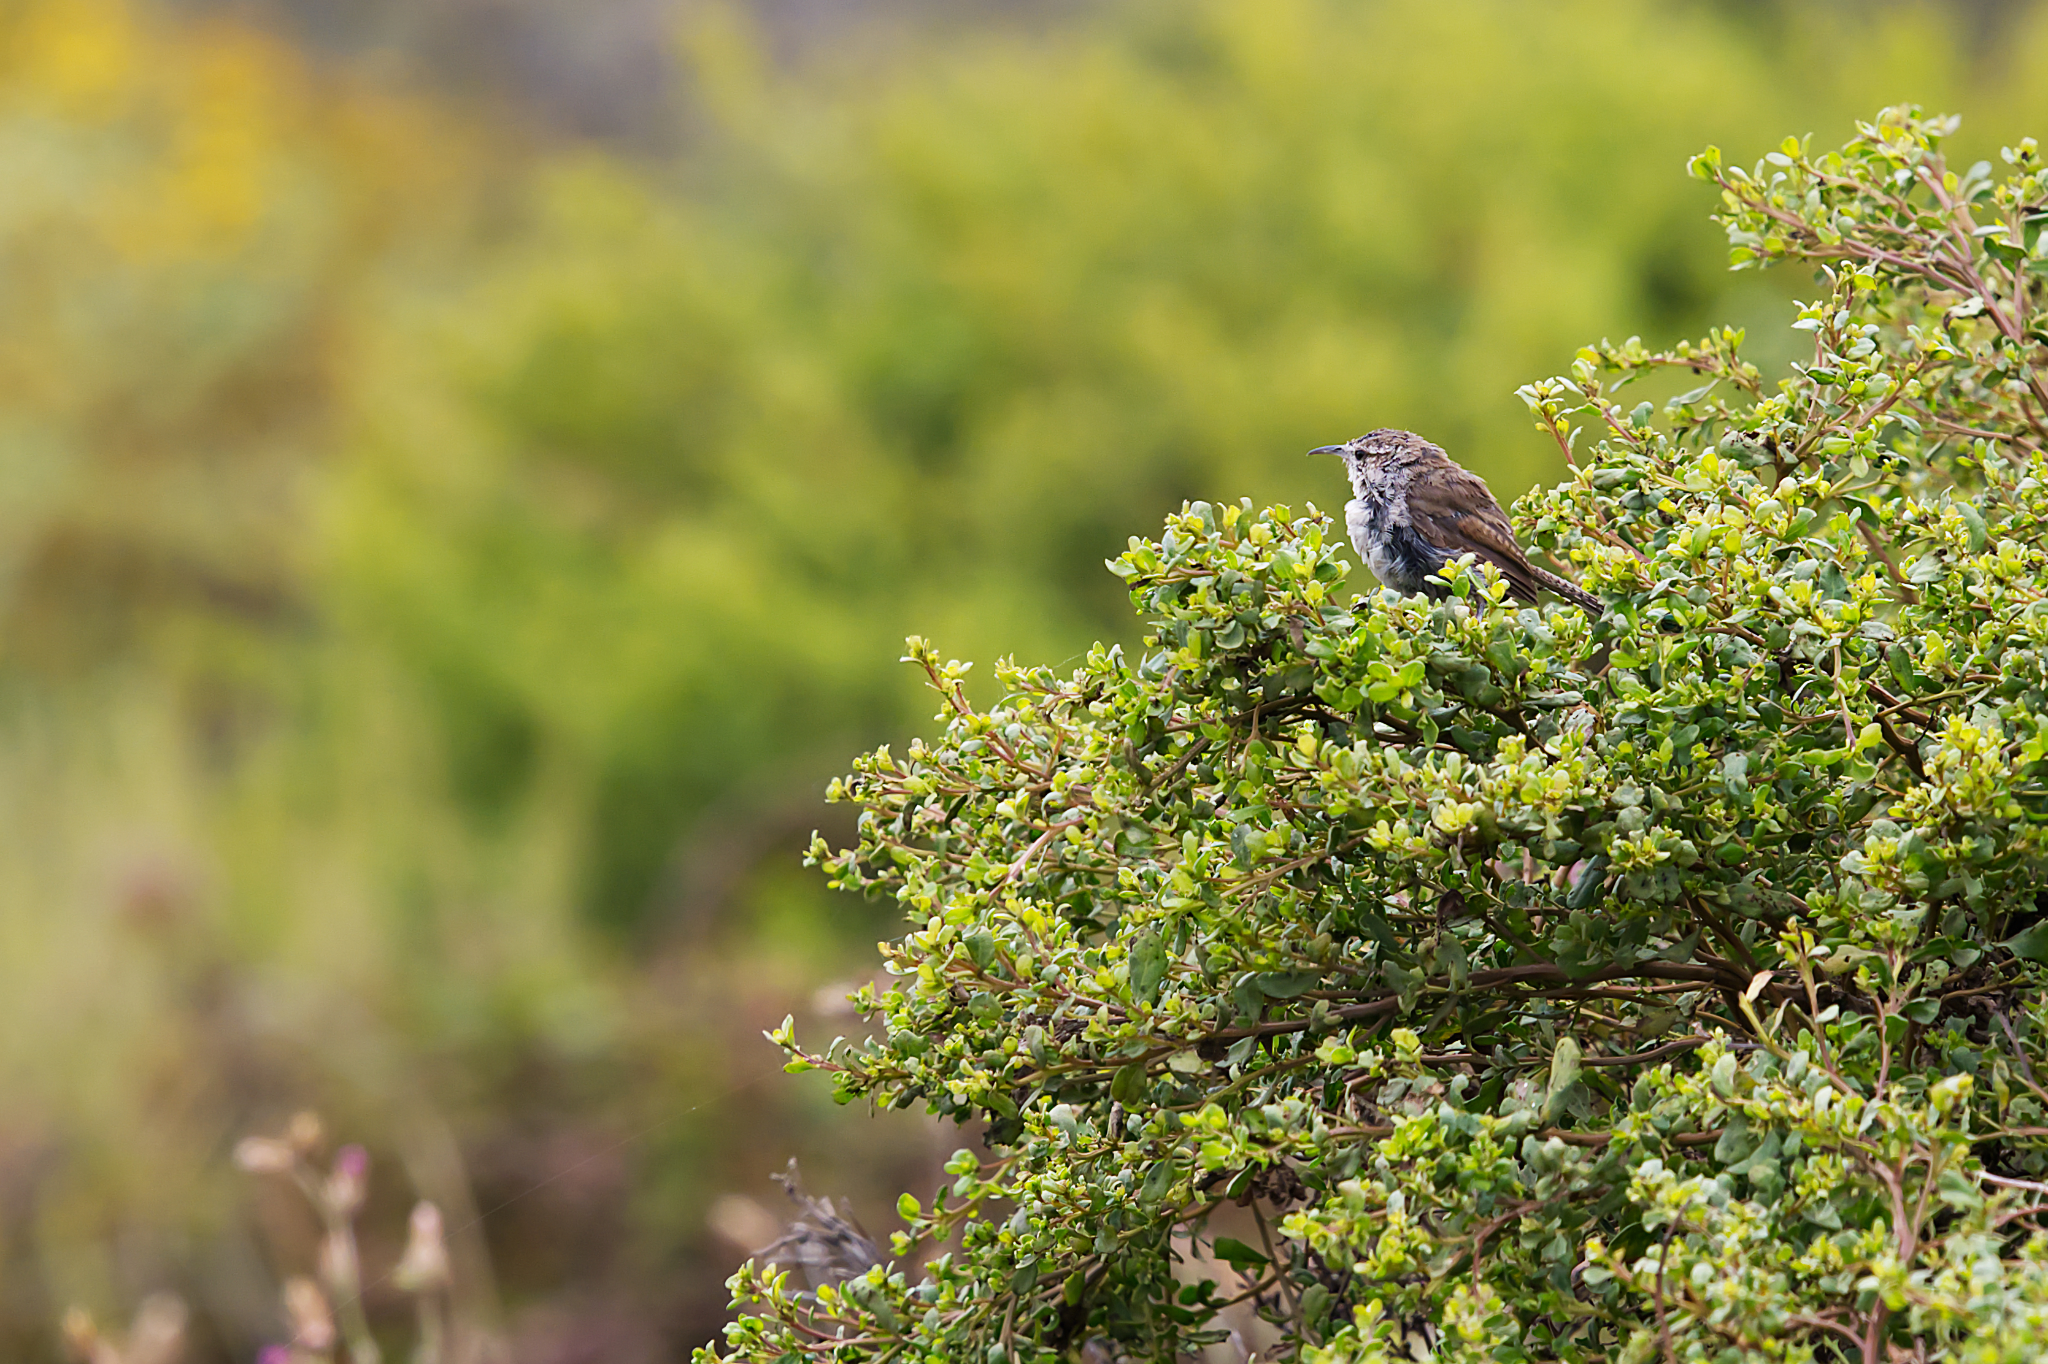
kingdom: Animalia
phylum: Chordata
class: Aves
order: Passeriformes
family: Troglodytidae
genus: Thryomanes
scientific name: Thryomanes bewickii
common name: Bewick's wren
